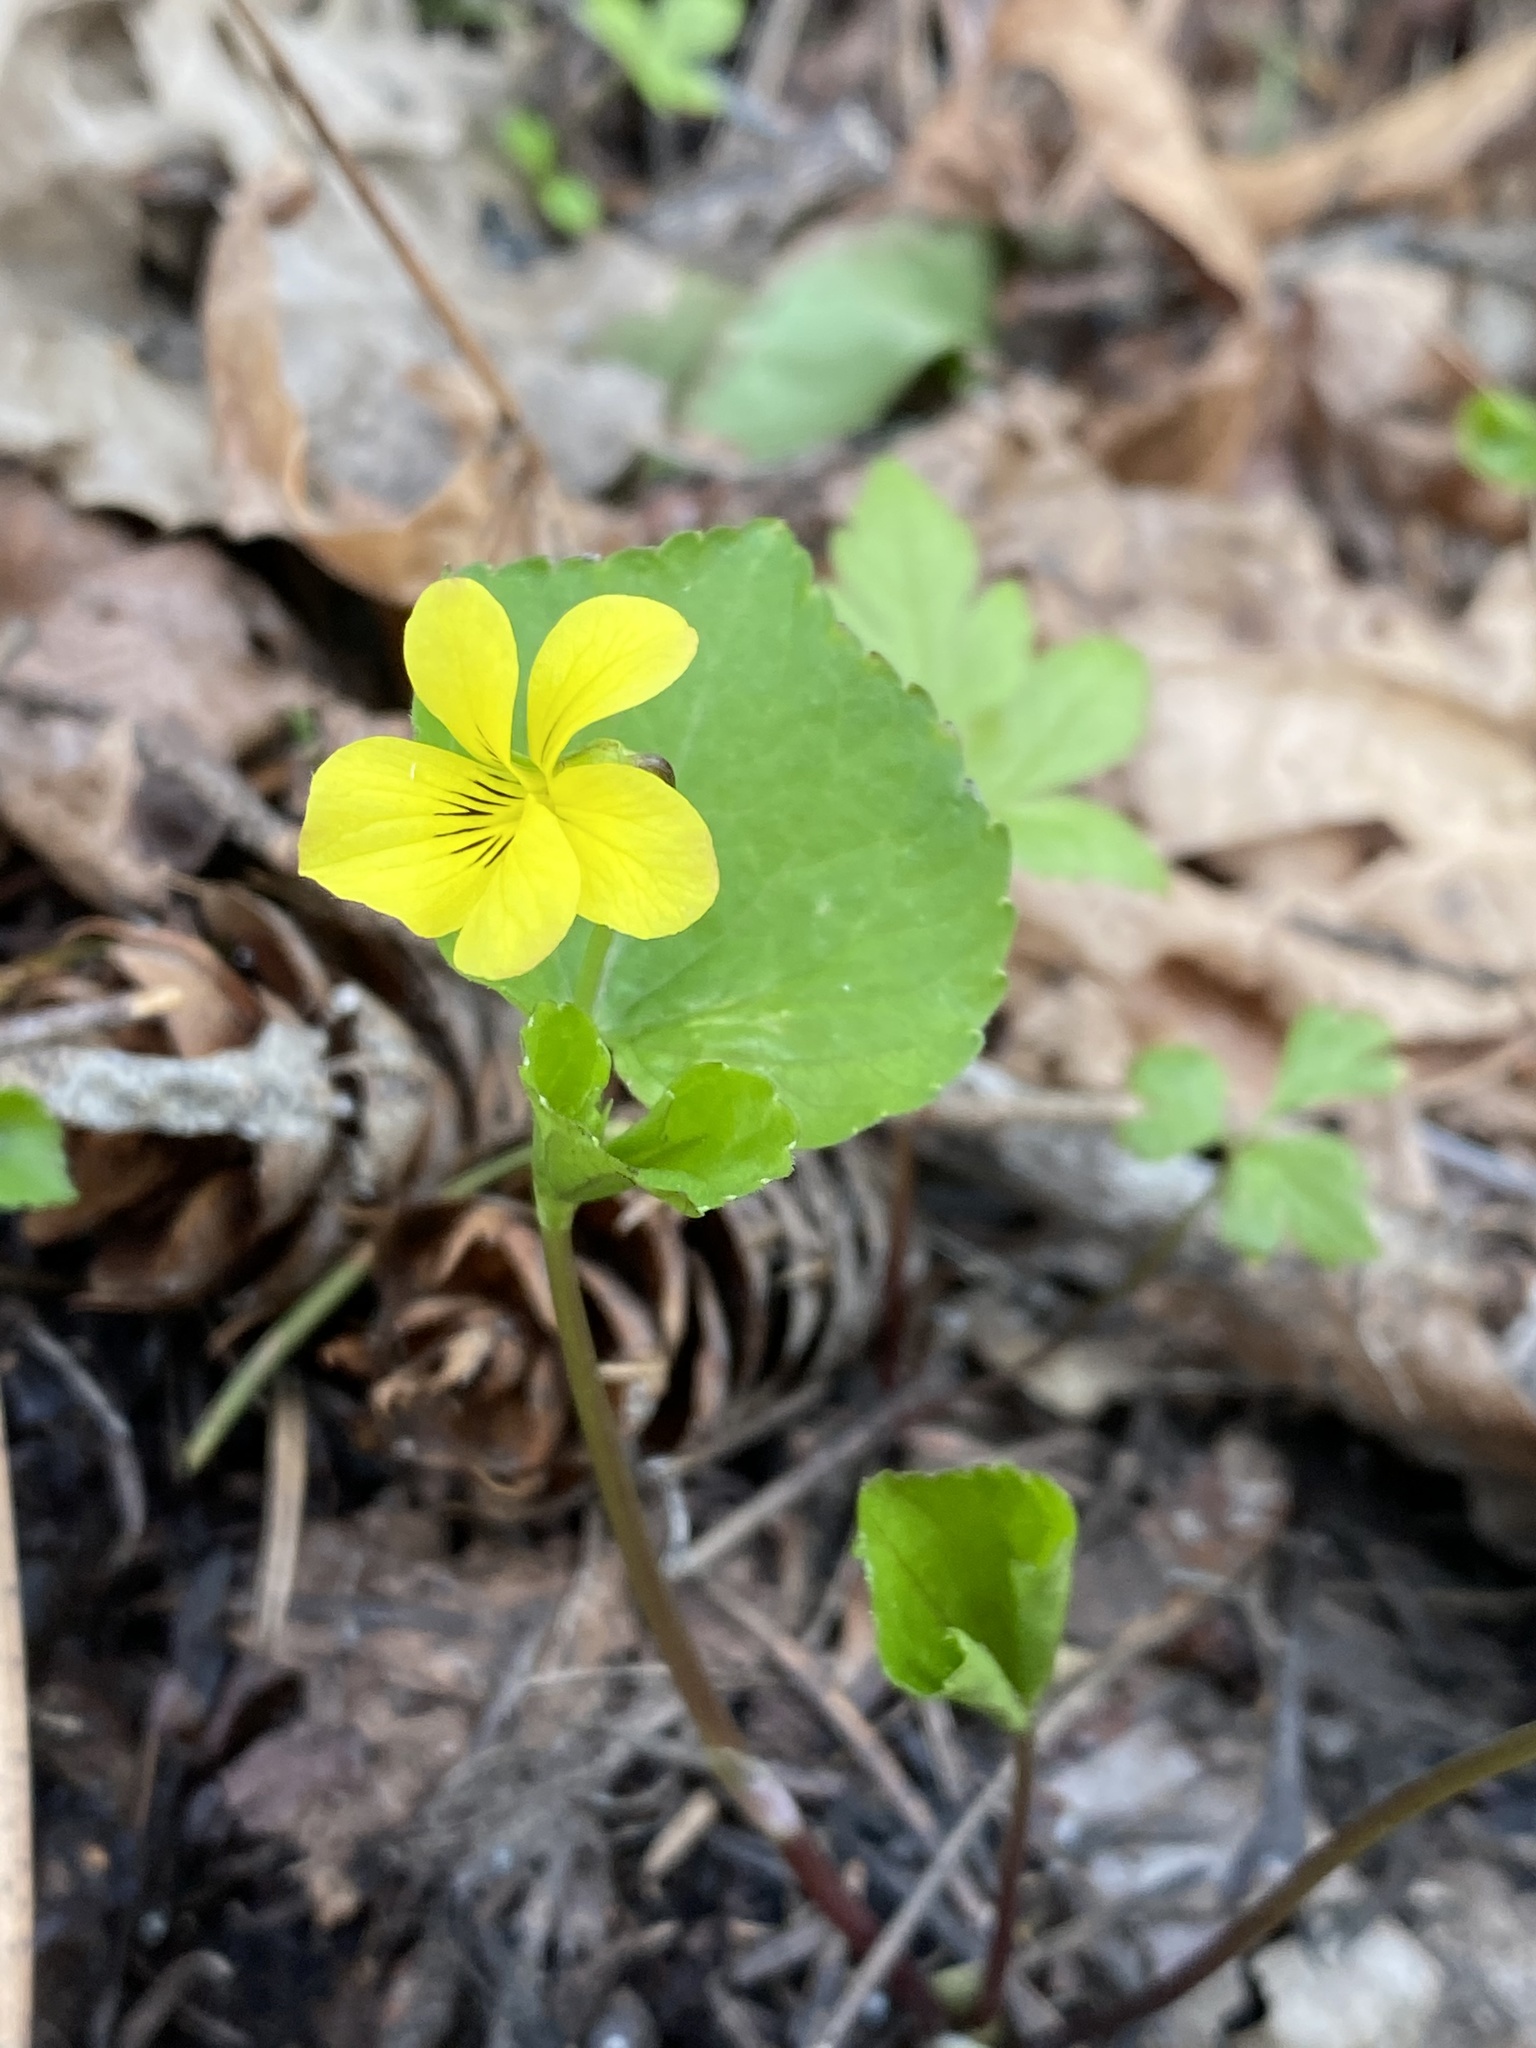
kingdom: Plantae
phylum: Tracheophyta
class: Magnoliopsida
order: Malpighiales
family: Violaceae
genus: Viola
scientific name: Viola glabella
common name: Stream violet
